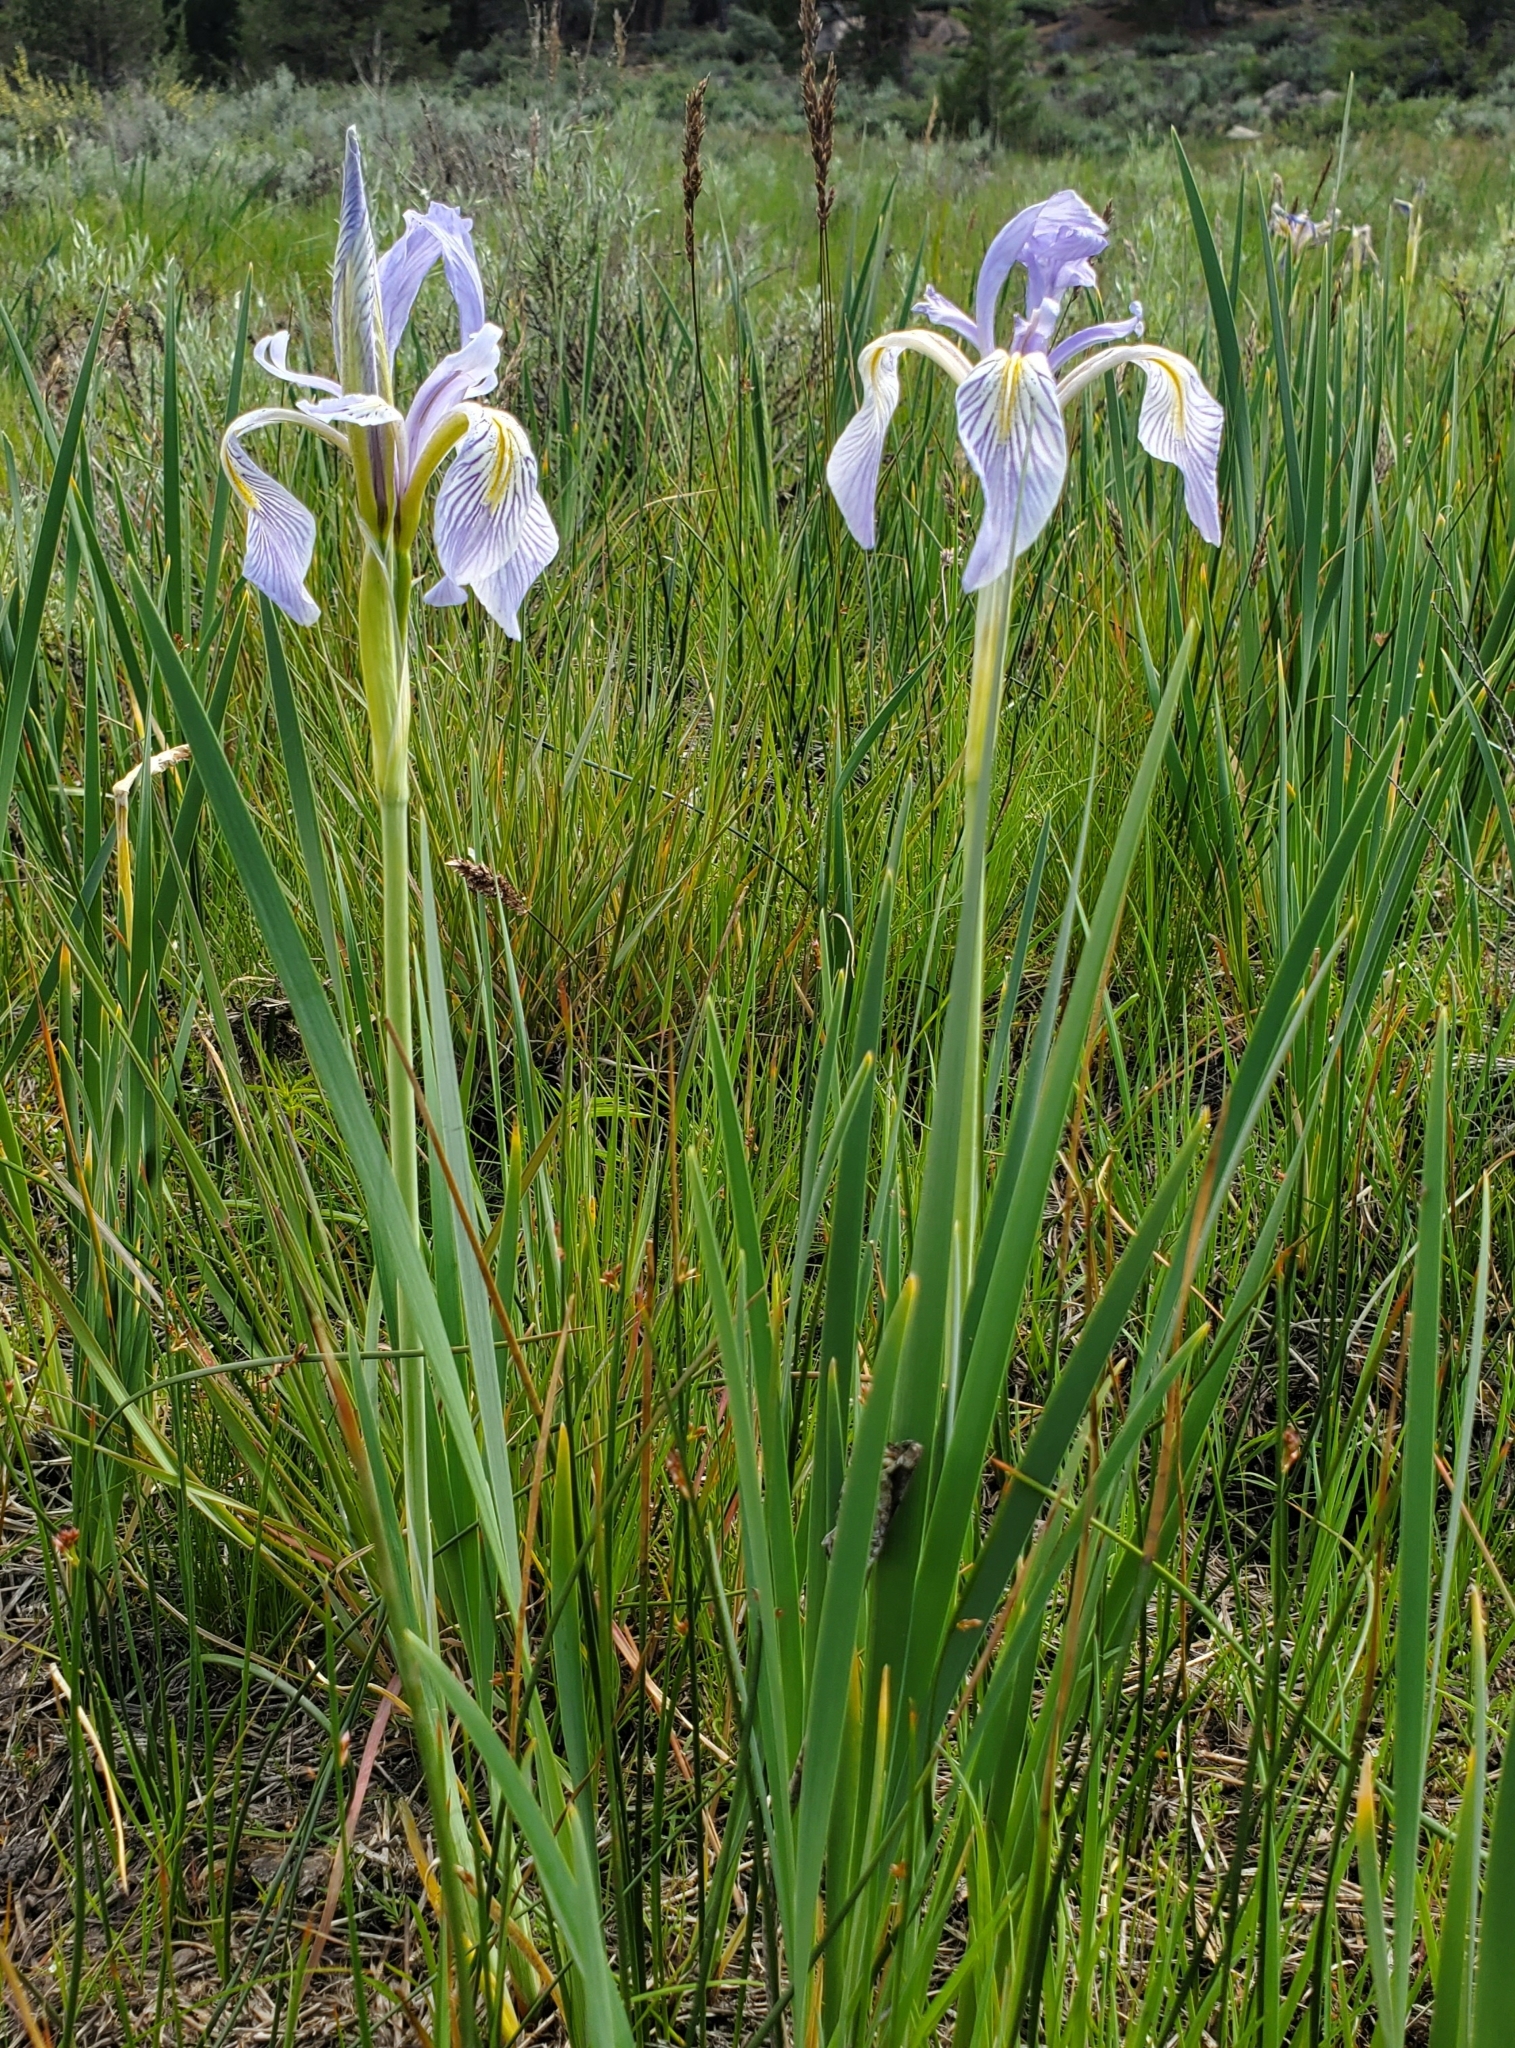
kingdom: Plantae
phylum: Tracheophyta
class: Liliopsida
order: Asparagales
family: Iridaceae
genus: Iris
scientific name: Iris missouriensis
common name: Rocky mountain iris
